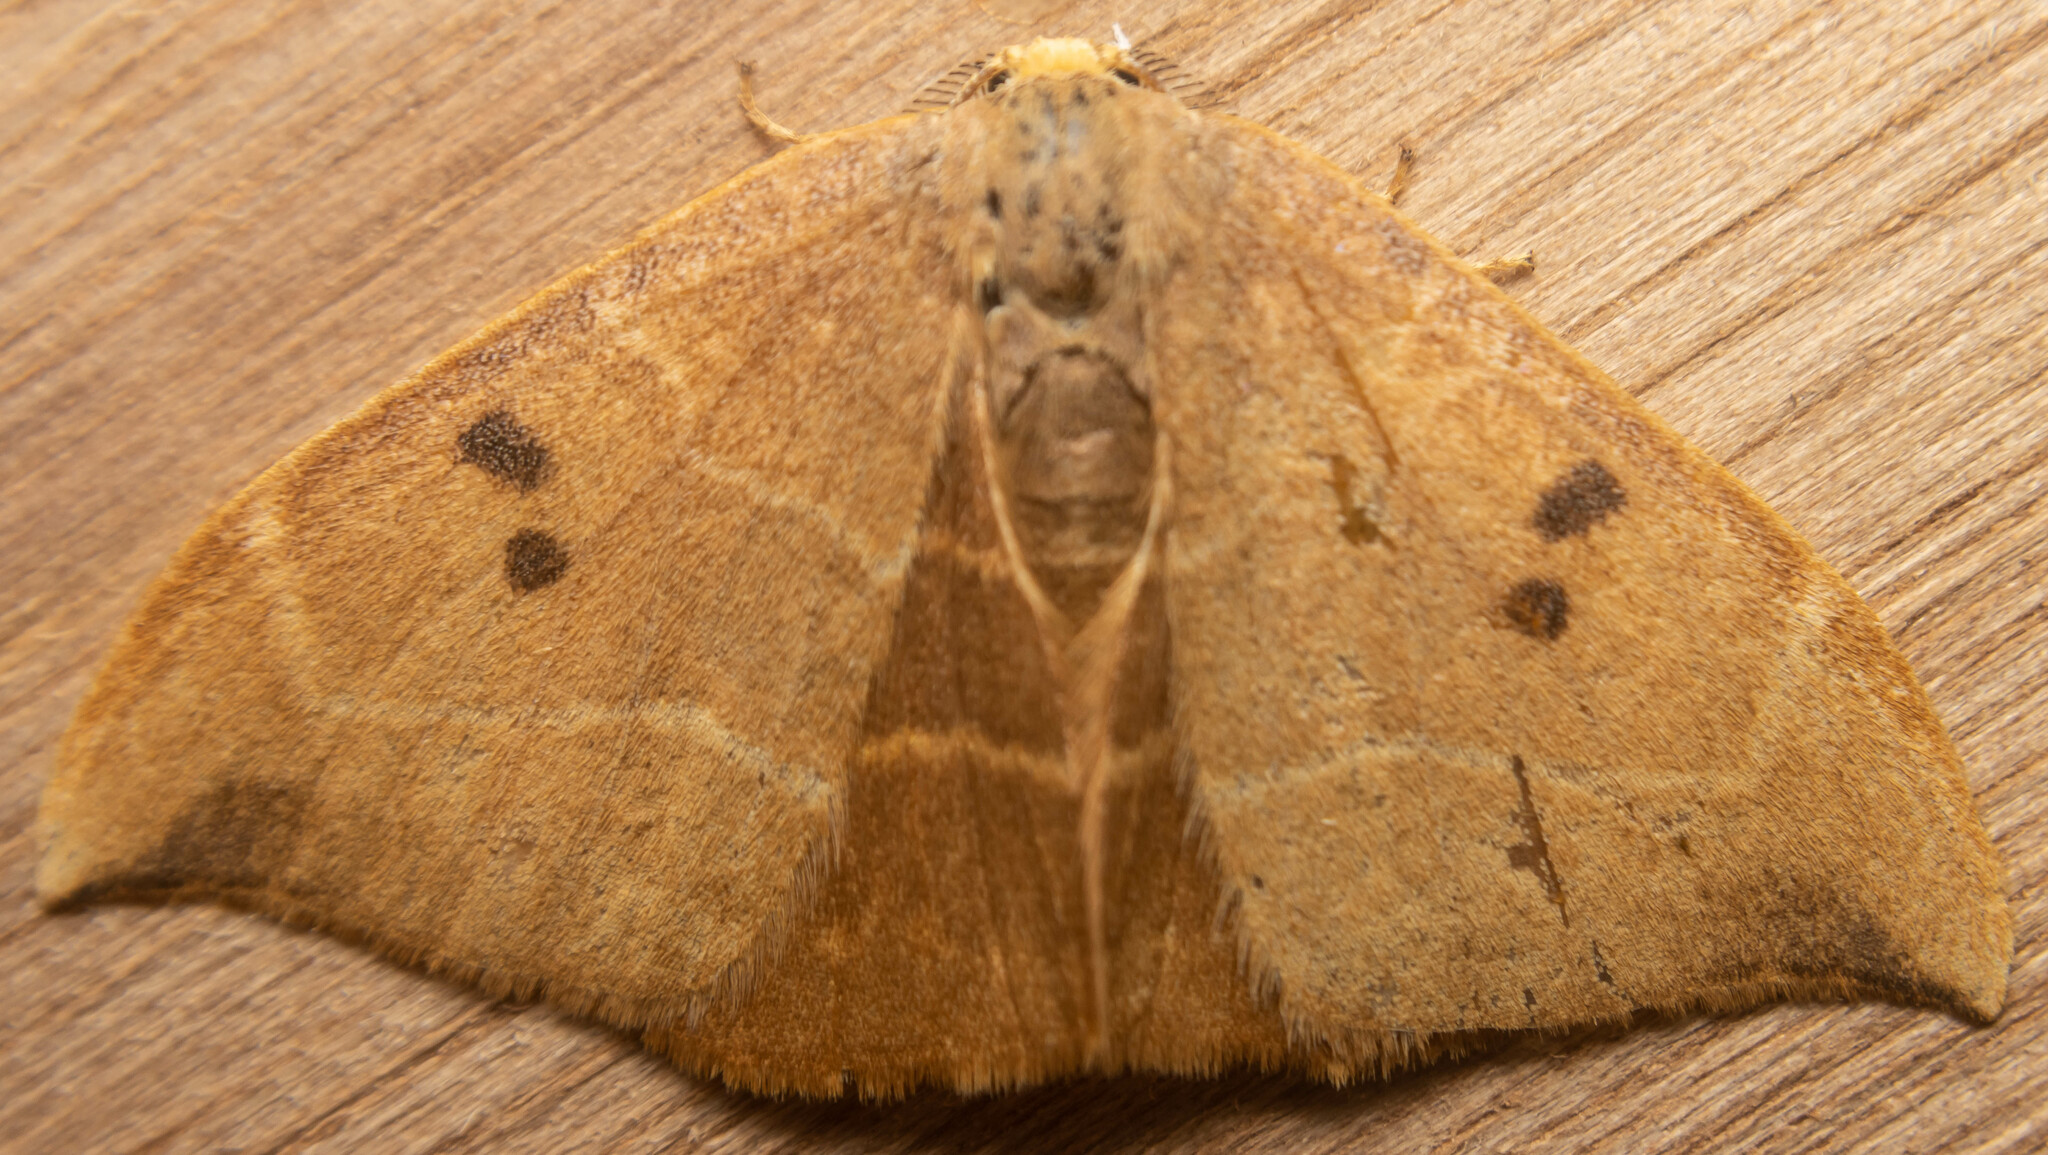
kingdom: Animalia
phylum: Arthropoda
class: Insecta
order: Lepidoptera
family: Drepanidae
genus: Watsonalla
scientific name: Watsonalla binaria
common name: Oak hook-tip
